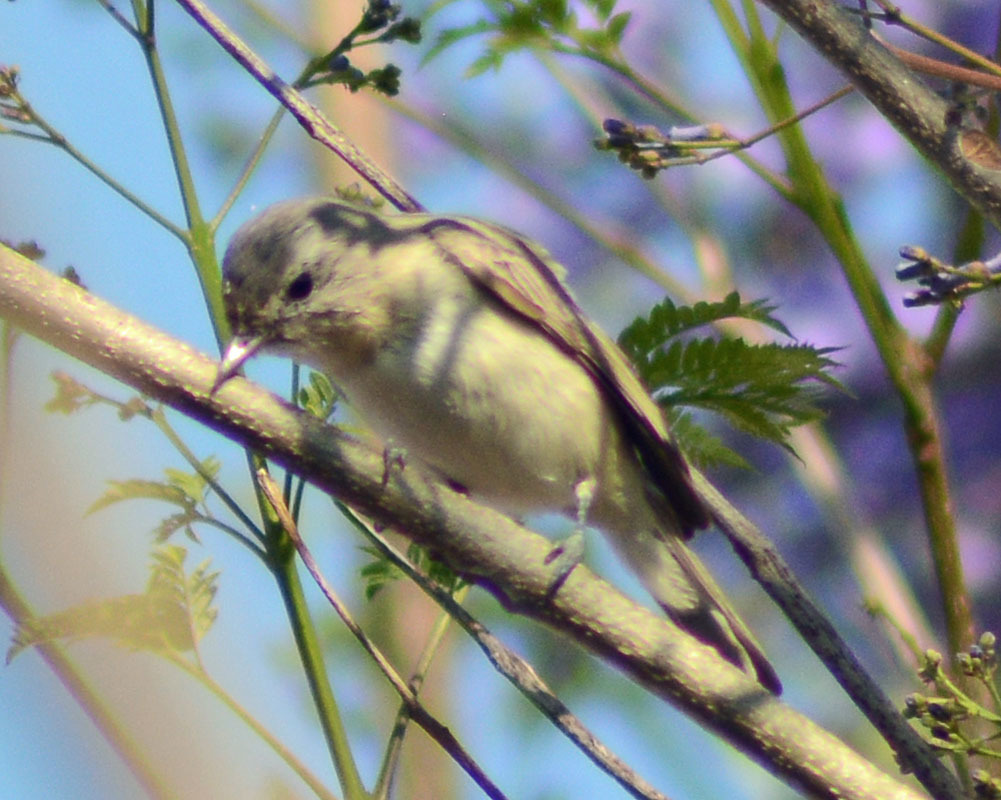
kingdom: Animalia
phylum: Chordata
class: Aves
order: Passeriformes
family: Vireonidae
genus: Vireo
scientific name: Vireo gilvus
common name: Warbling vireo
